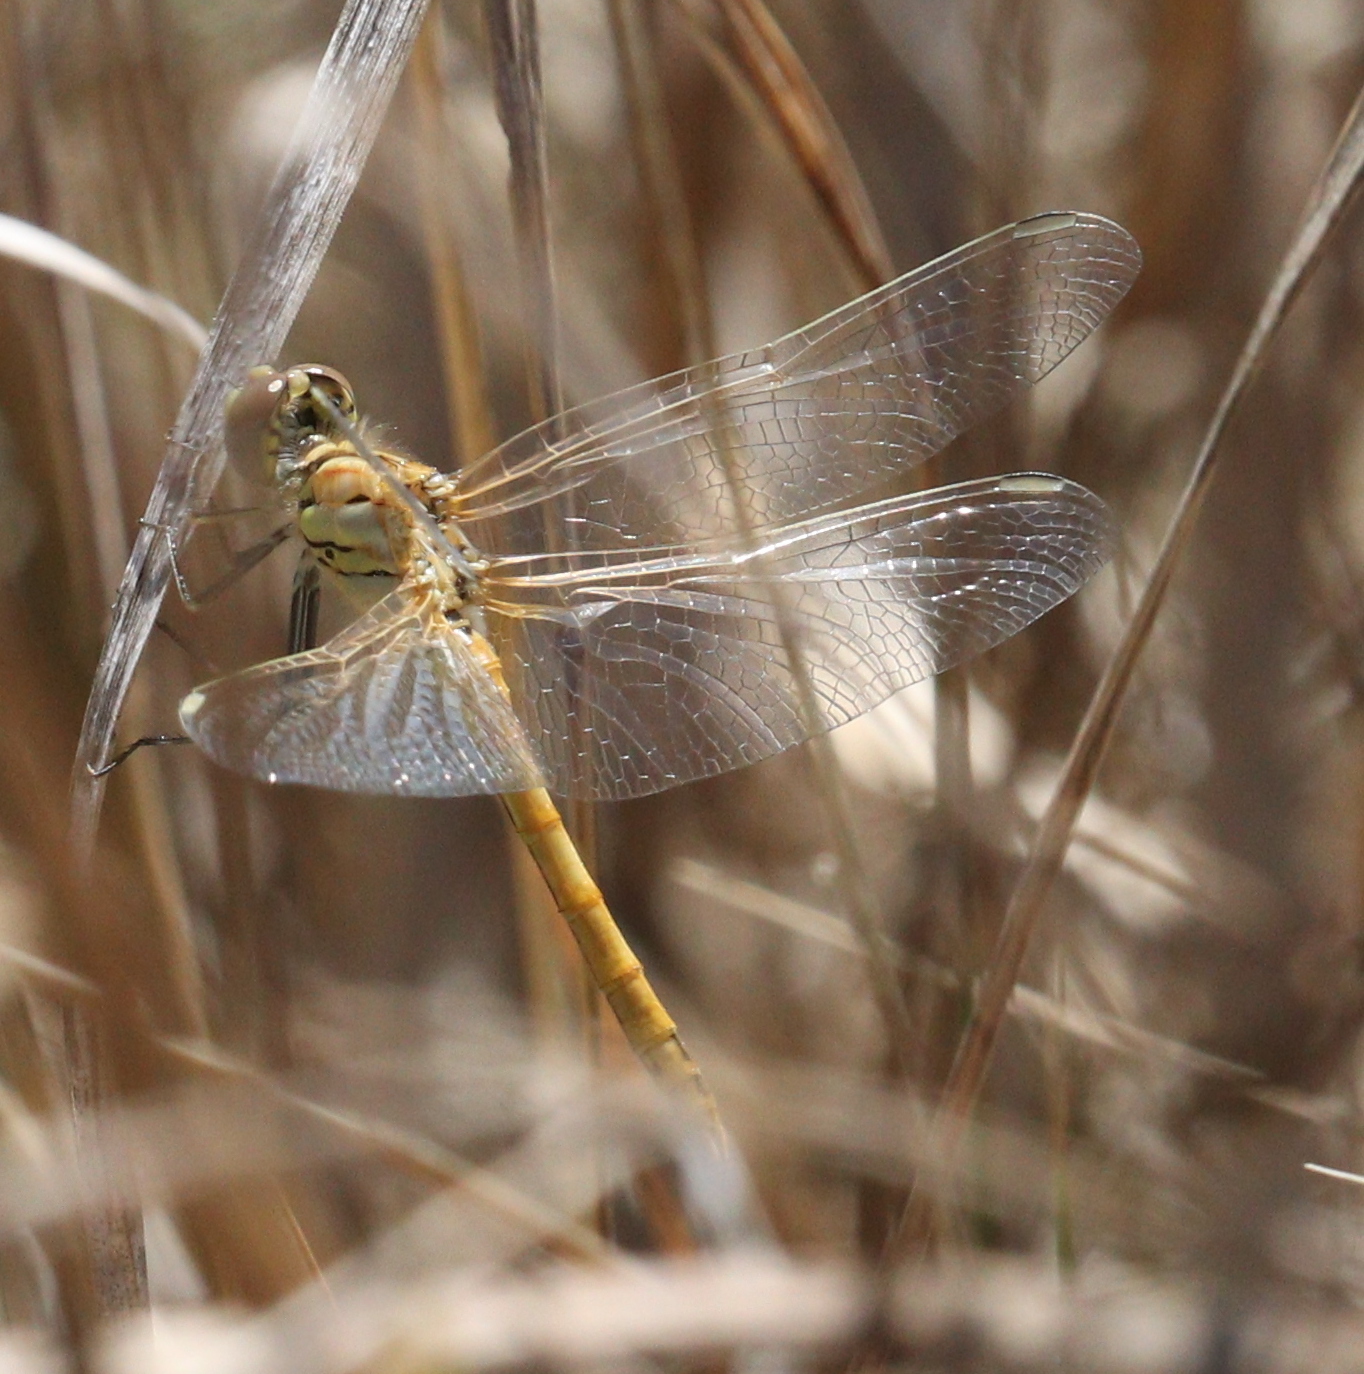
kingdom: Animalia
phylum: Arthropoda
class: Insecta
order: Odonata
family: Libellulidae
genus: Sympetrum
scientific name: Sympetrum fonscolombii
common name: Red-veined darter
